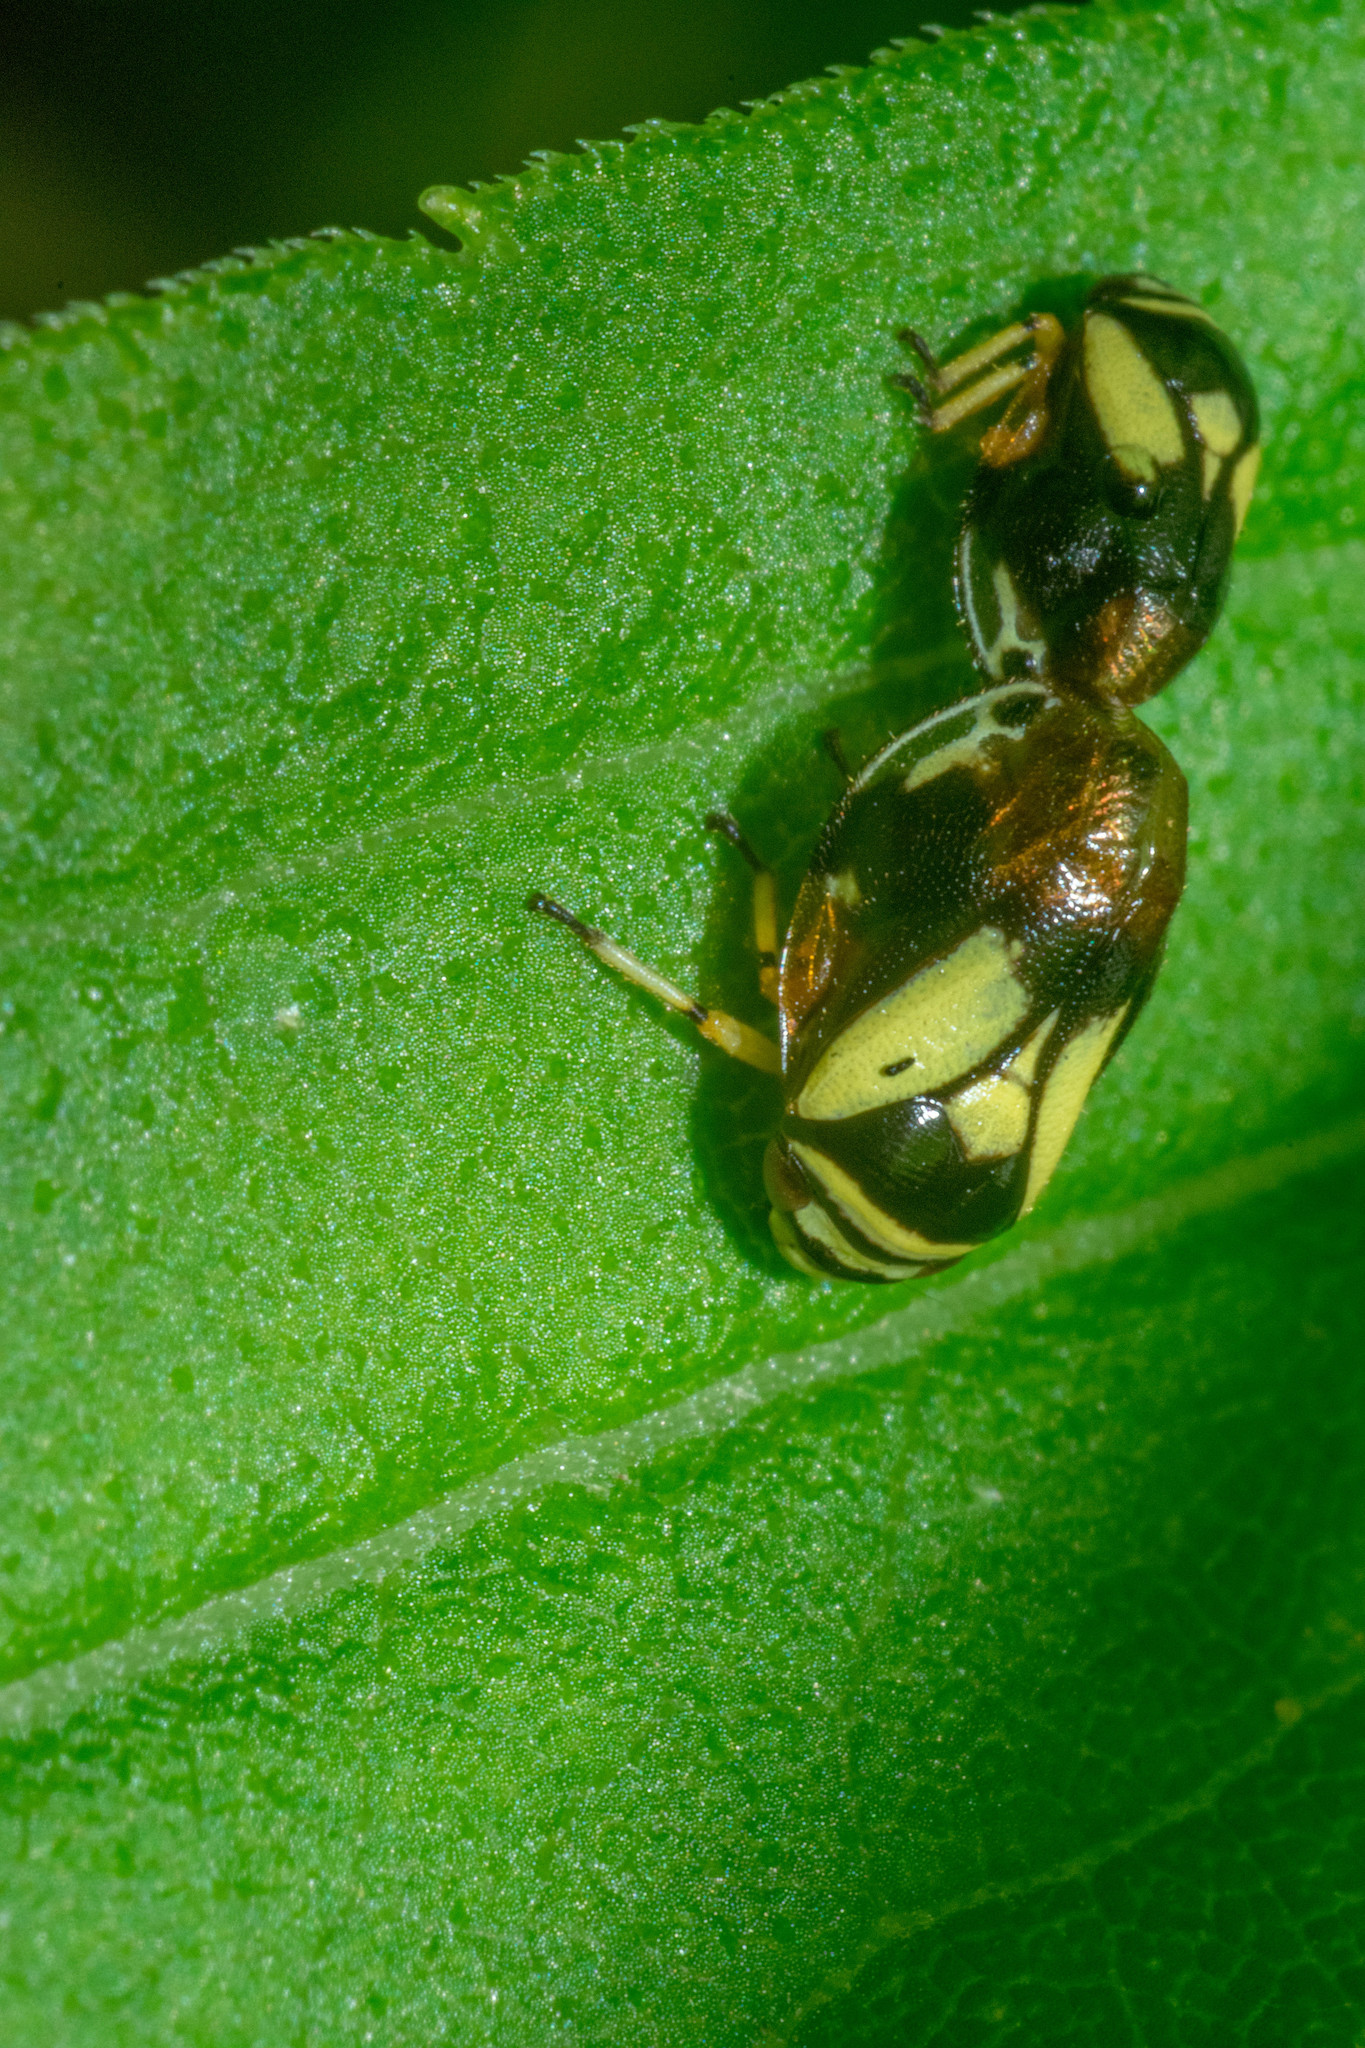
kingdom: Animalia
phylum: Arthropoda
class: Insecta
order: Hemiptera
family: Clastopteridae
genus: Clastoptera
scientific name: Clastoptera proteus
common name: Dogwood spittlebug
